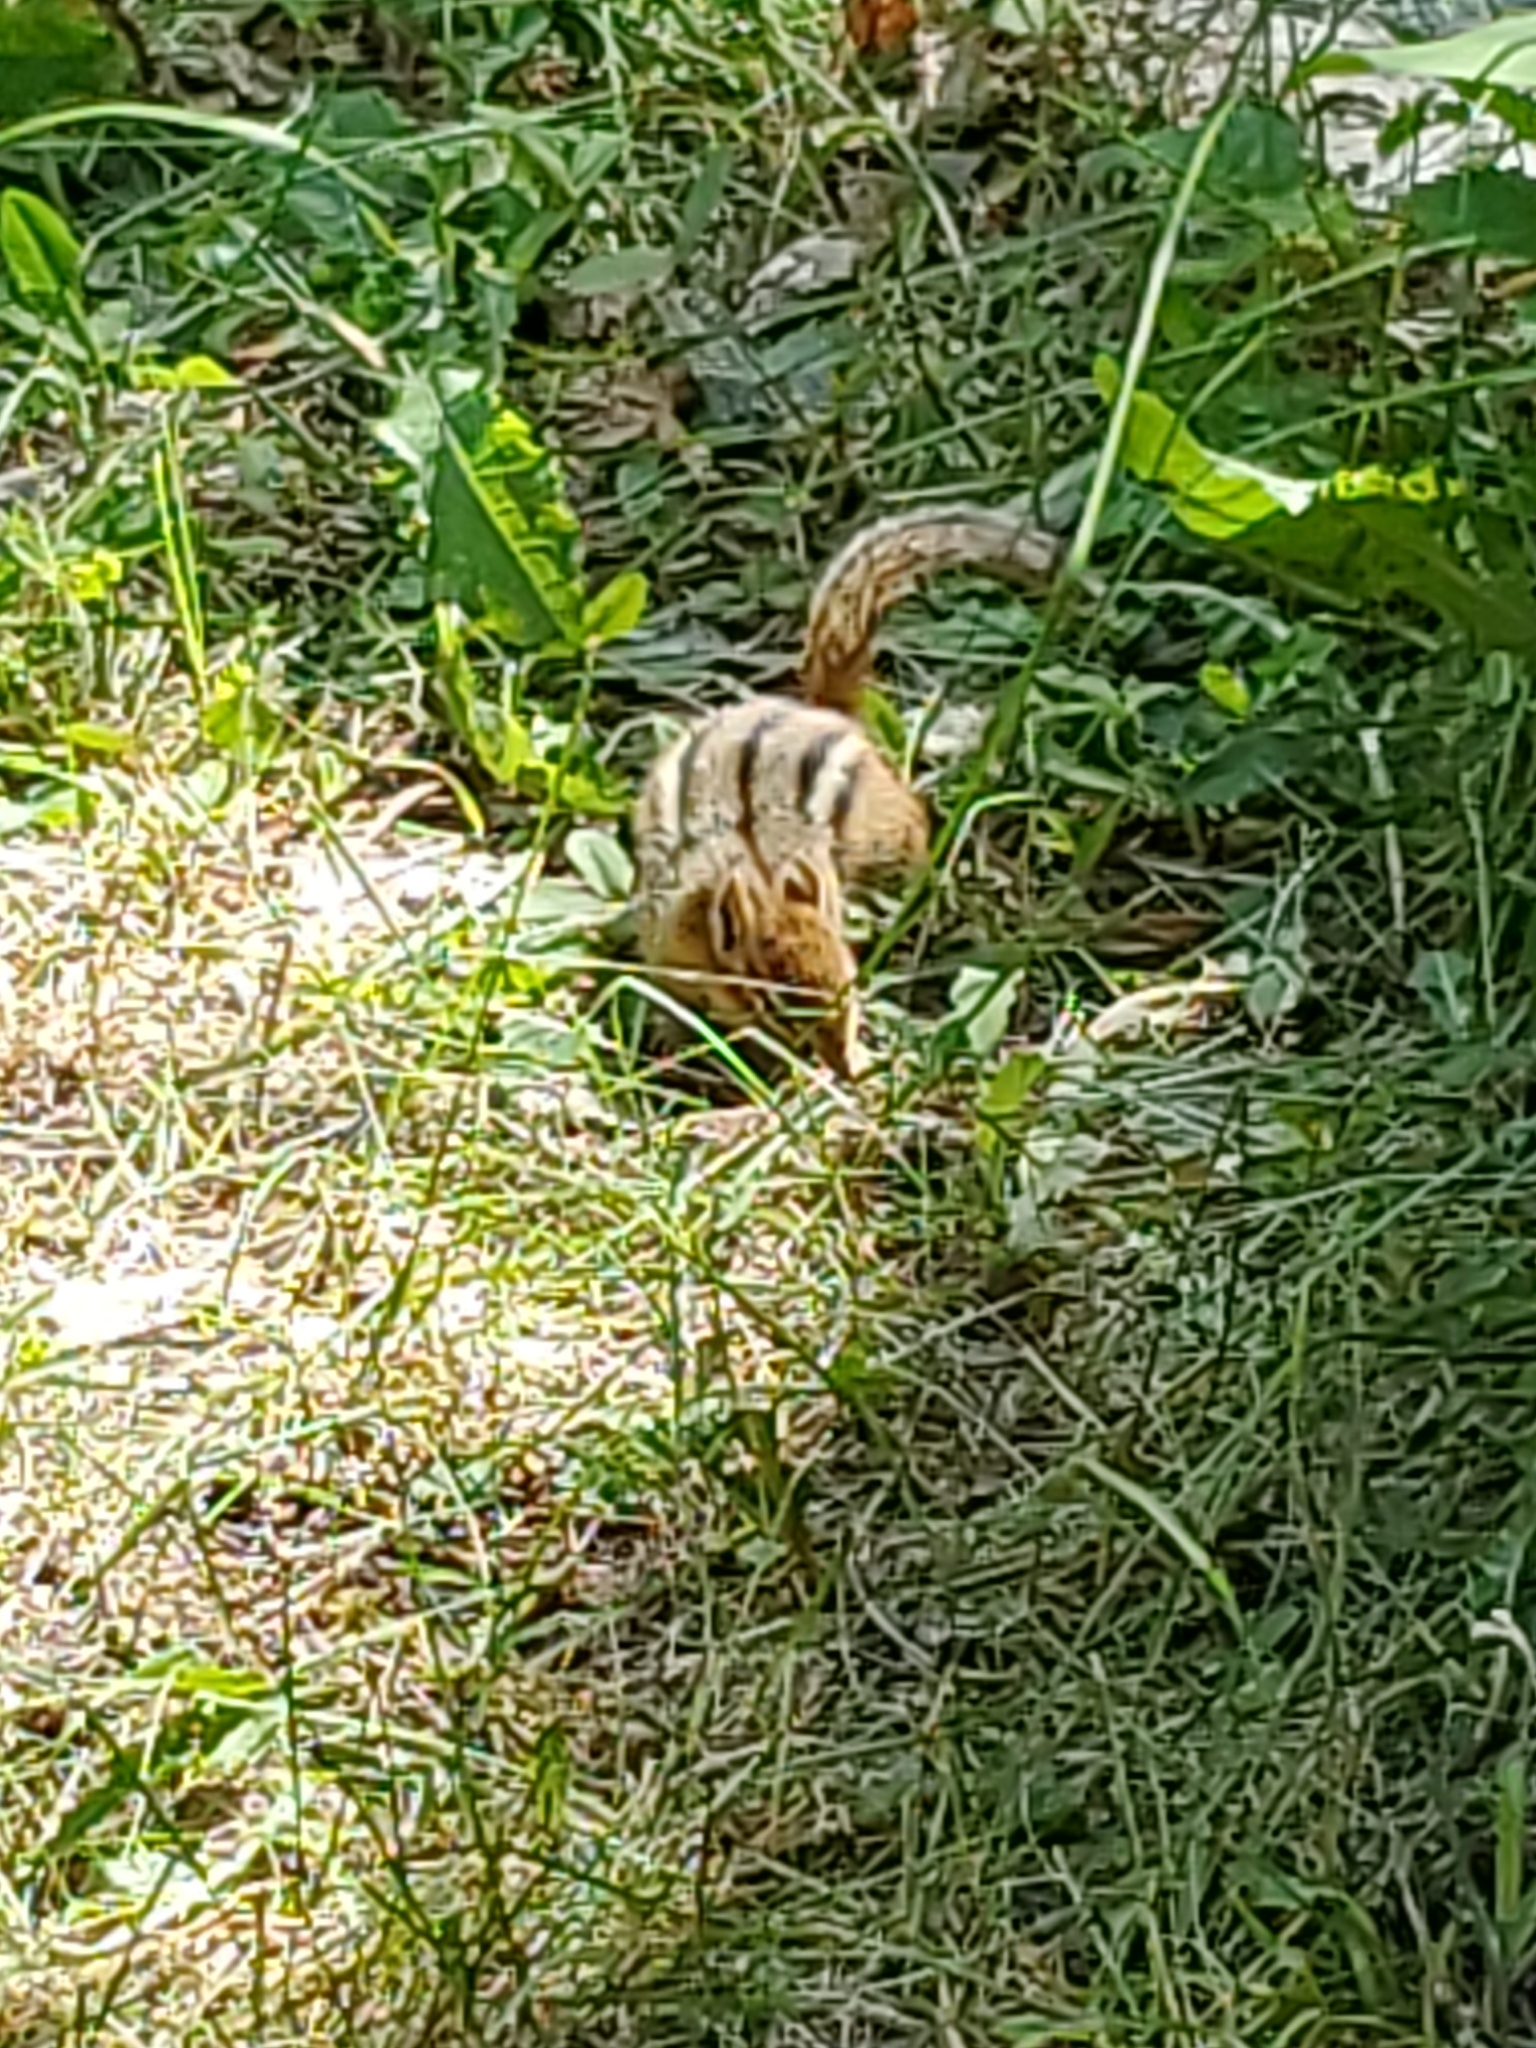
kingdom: Animalia
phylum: Chordata
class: Mammalia
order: Rodentia
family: Sciuridae
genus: Tamias
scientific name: Tamias striatus
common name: Eastern chipmunk
